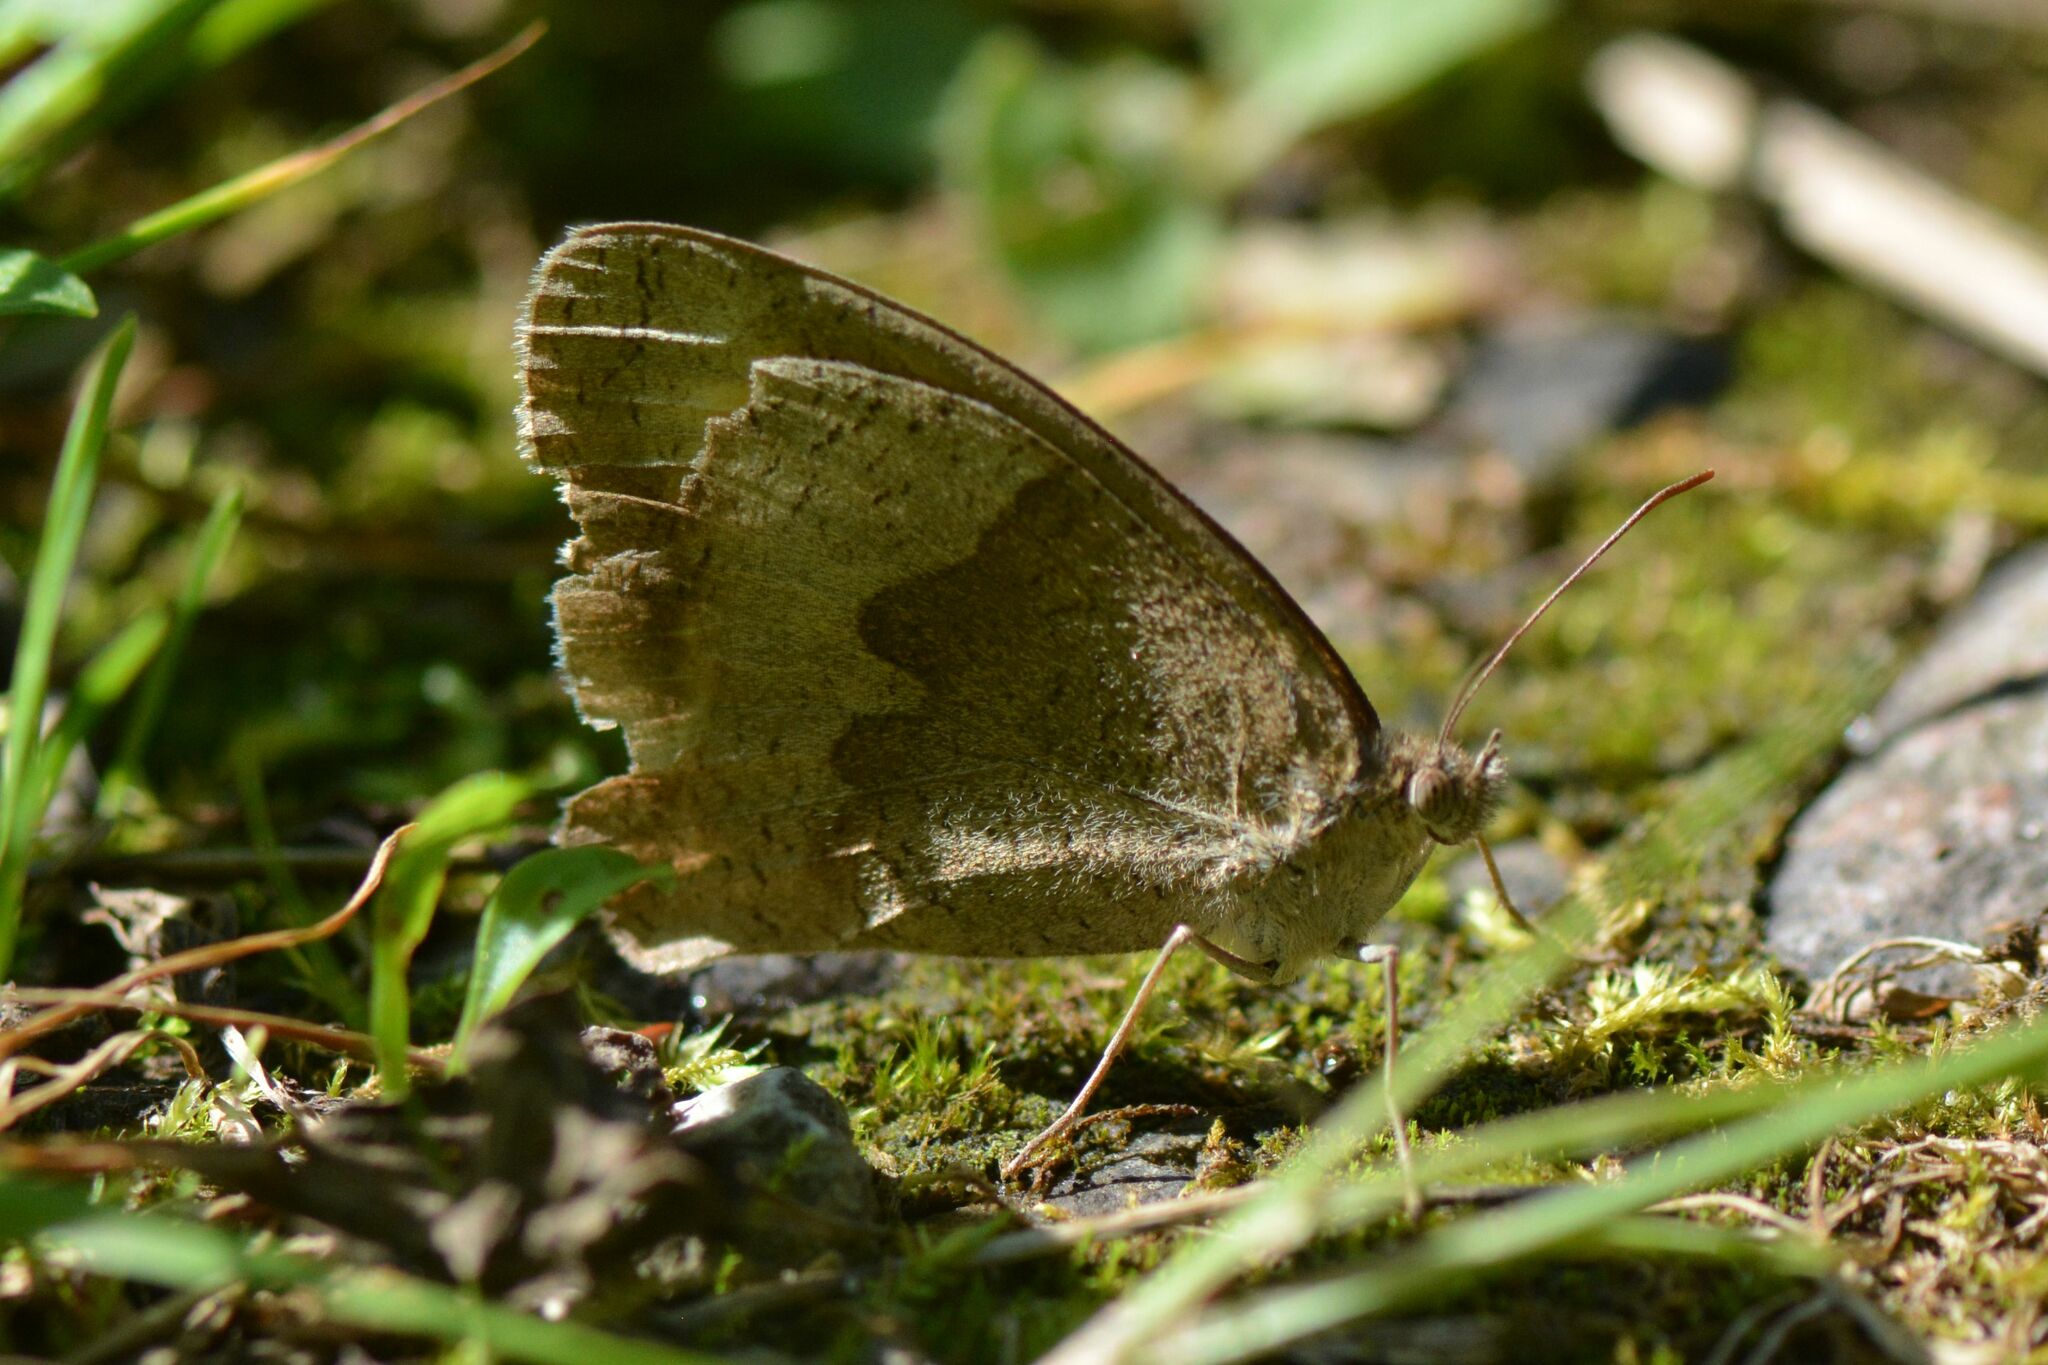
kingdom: Animalia
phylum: Arthropoda
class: Insecta
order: Lepidoptera
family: Nymphalidae
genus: Maniola
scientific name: Maniola jurtina
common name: Meadow brown
